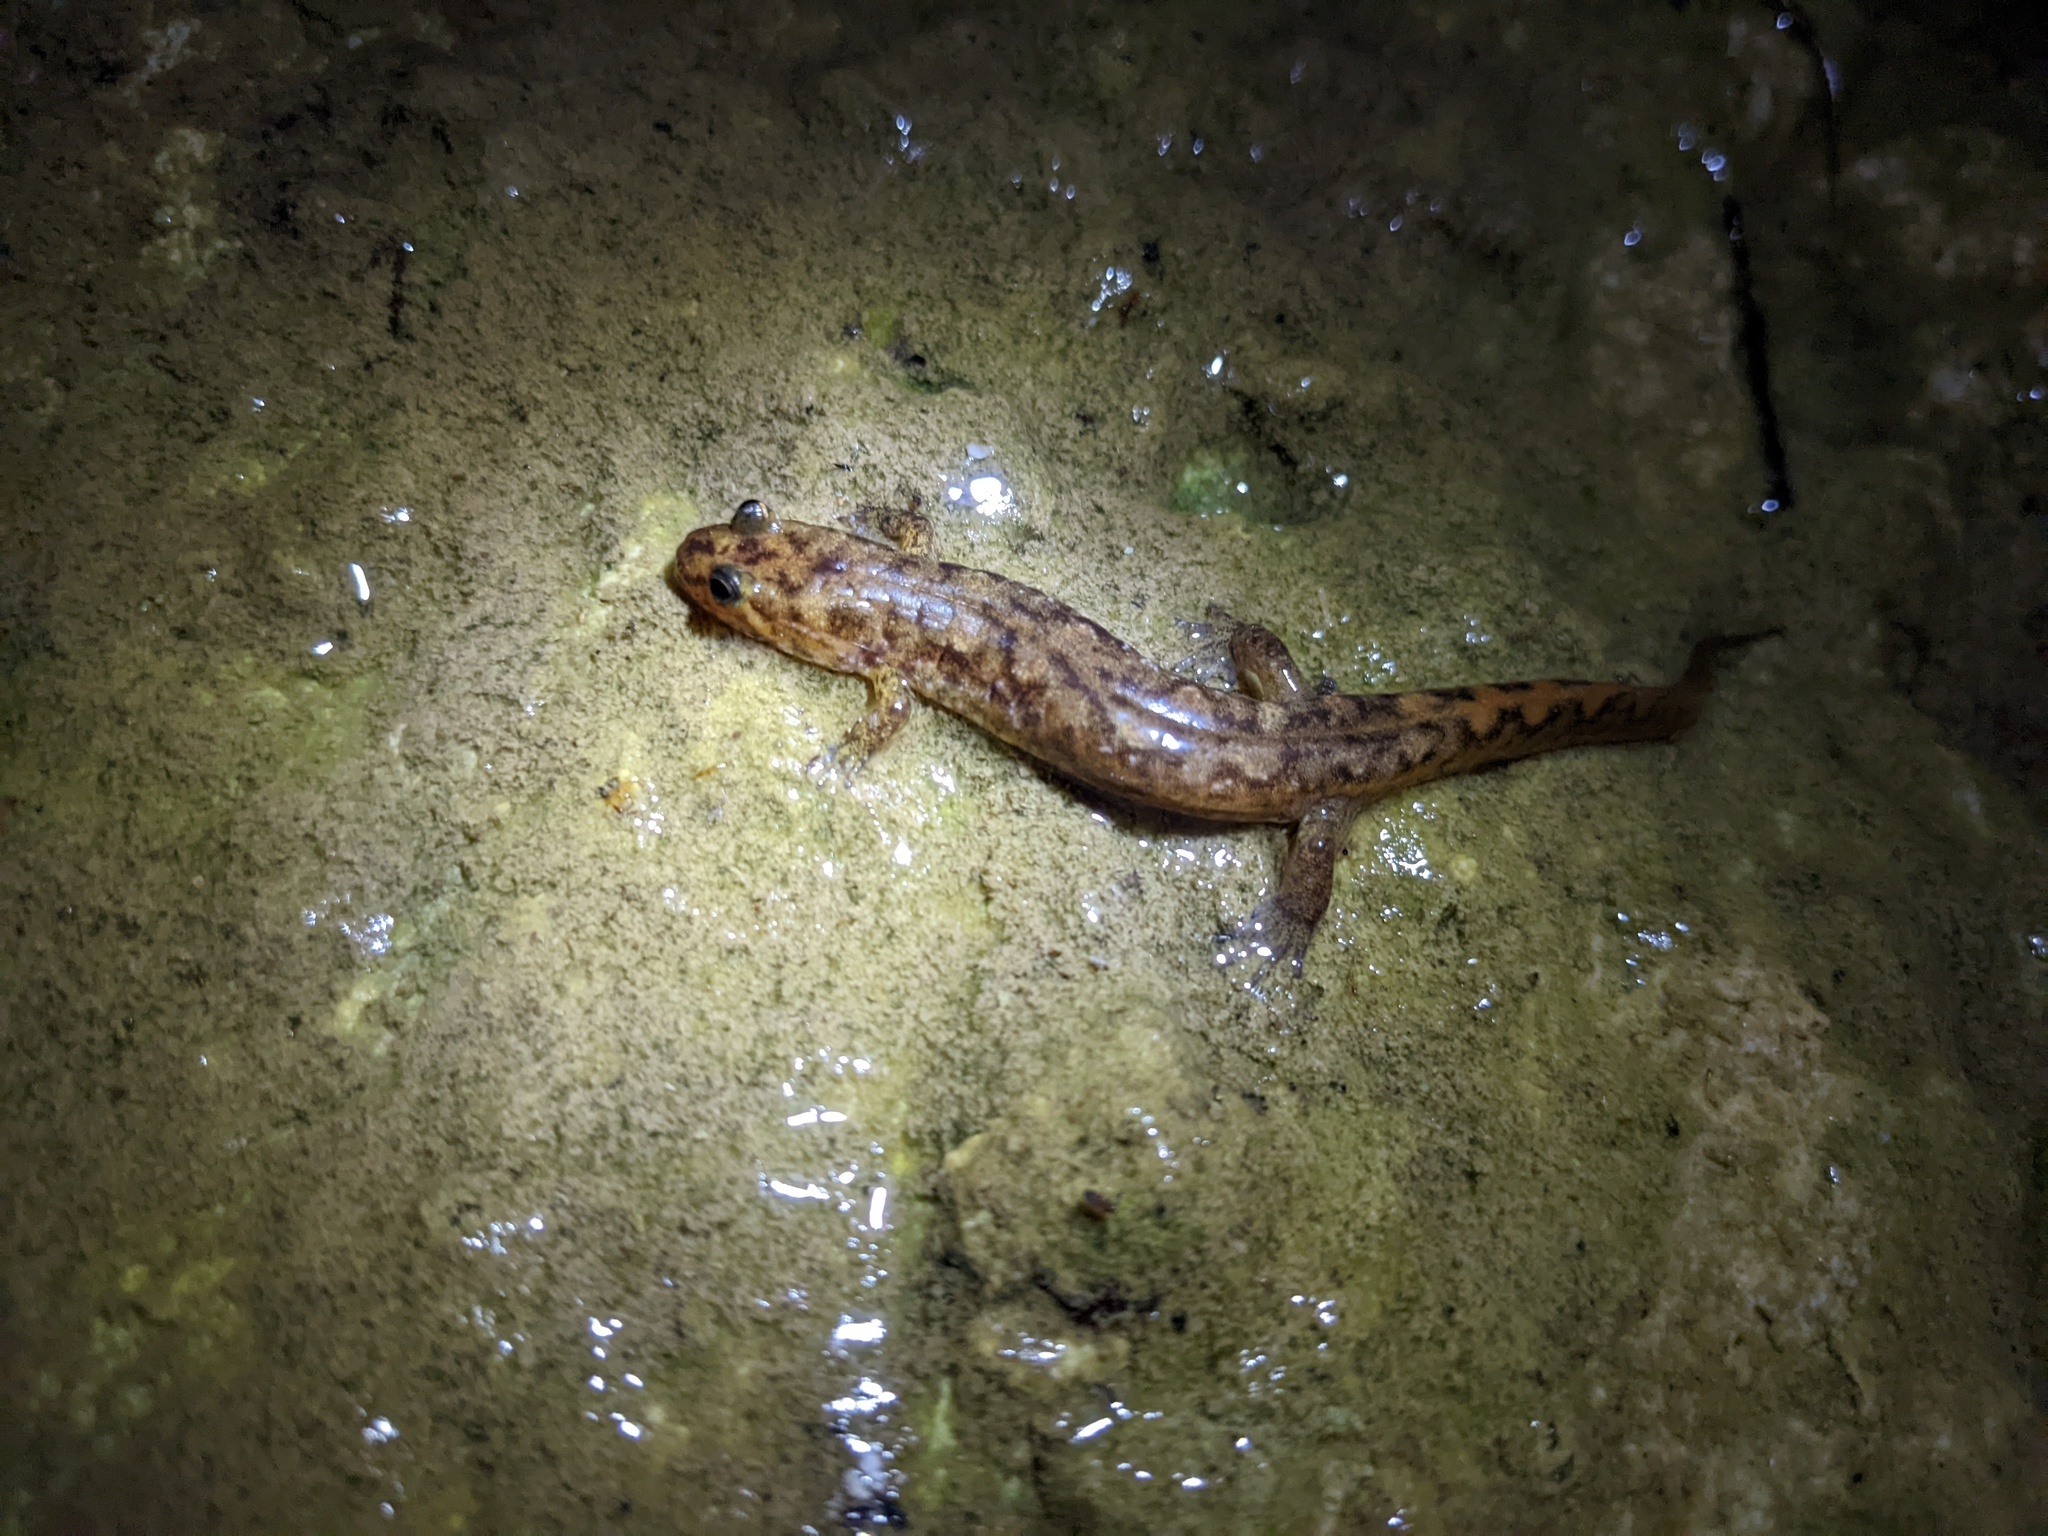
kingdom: Animalia
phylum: Chordata
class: Amphibia
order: Caudata
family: Plethodontidae
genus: Desmognathus
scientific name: Desmognathus monticola
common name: Seal salamander
